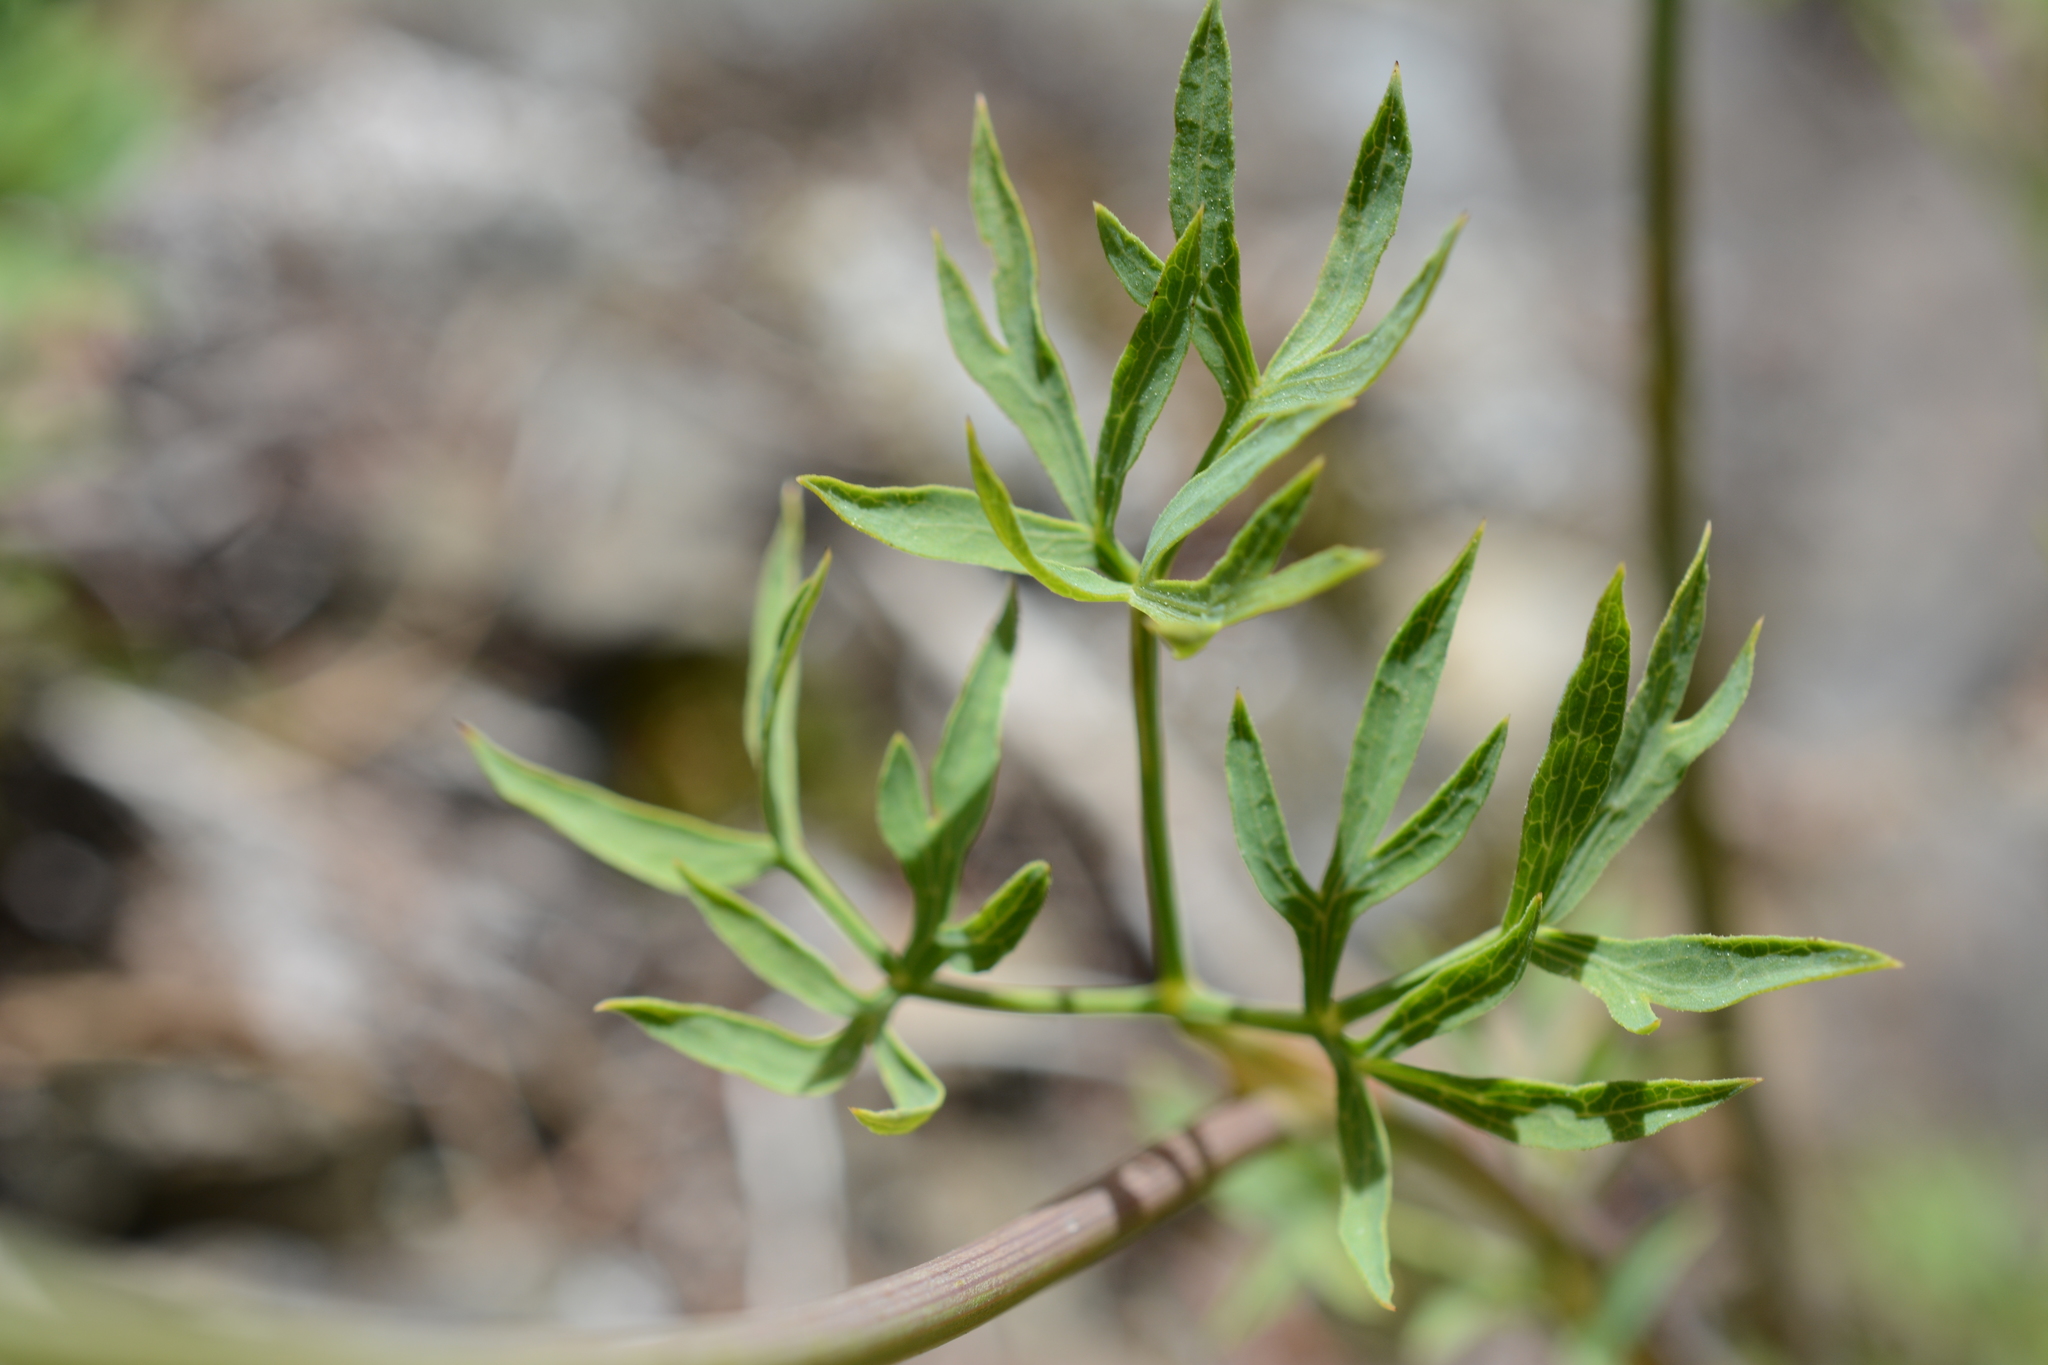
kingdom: Plantae
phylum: Tracheophyta
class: Magnoliopsida
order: Apiales
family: Apiaceae
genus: Lomatium
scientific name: Lomatium brandegeei
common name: Brandegee's desert-parsley
